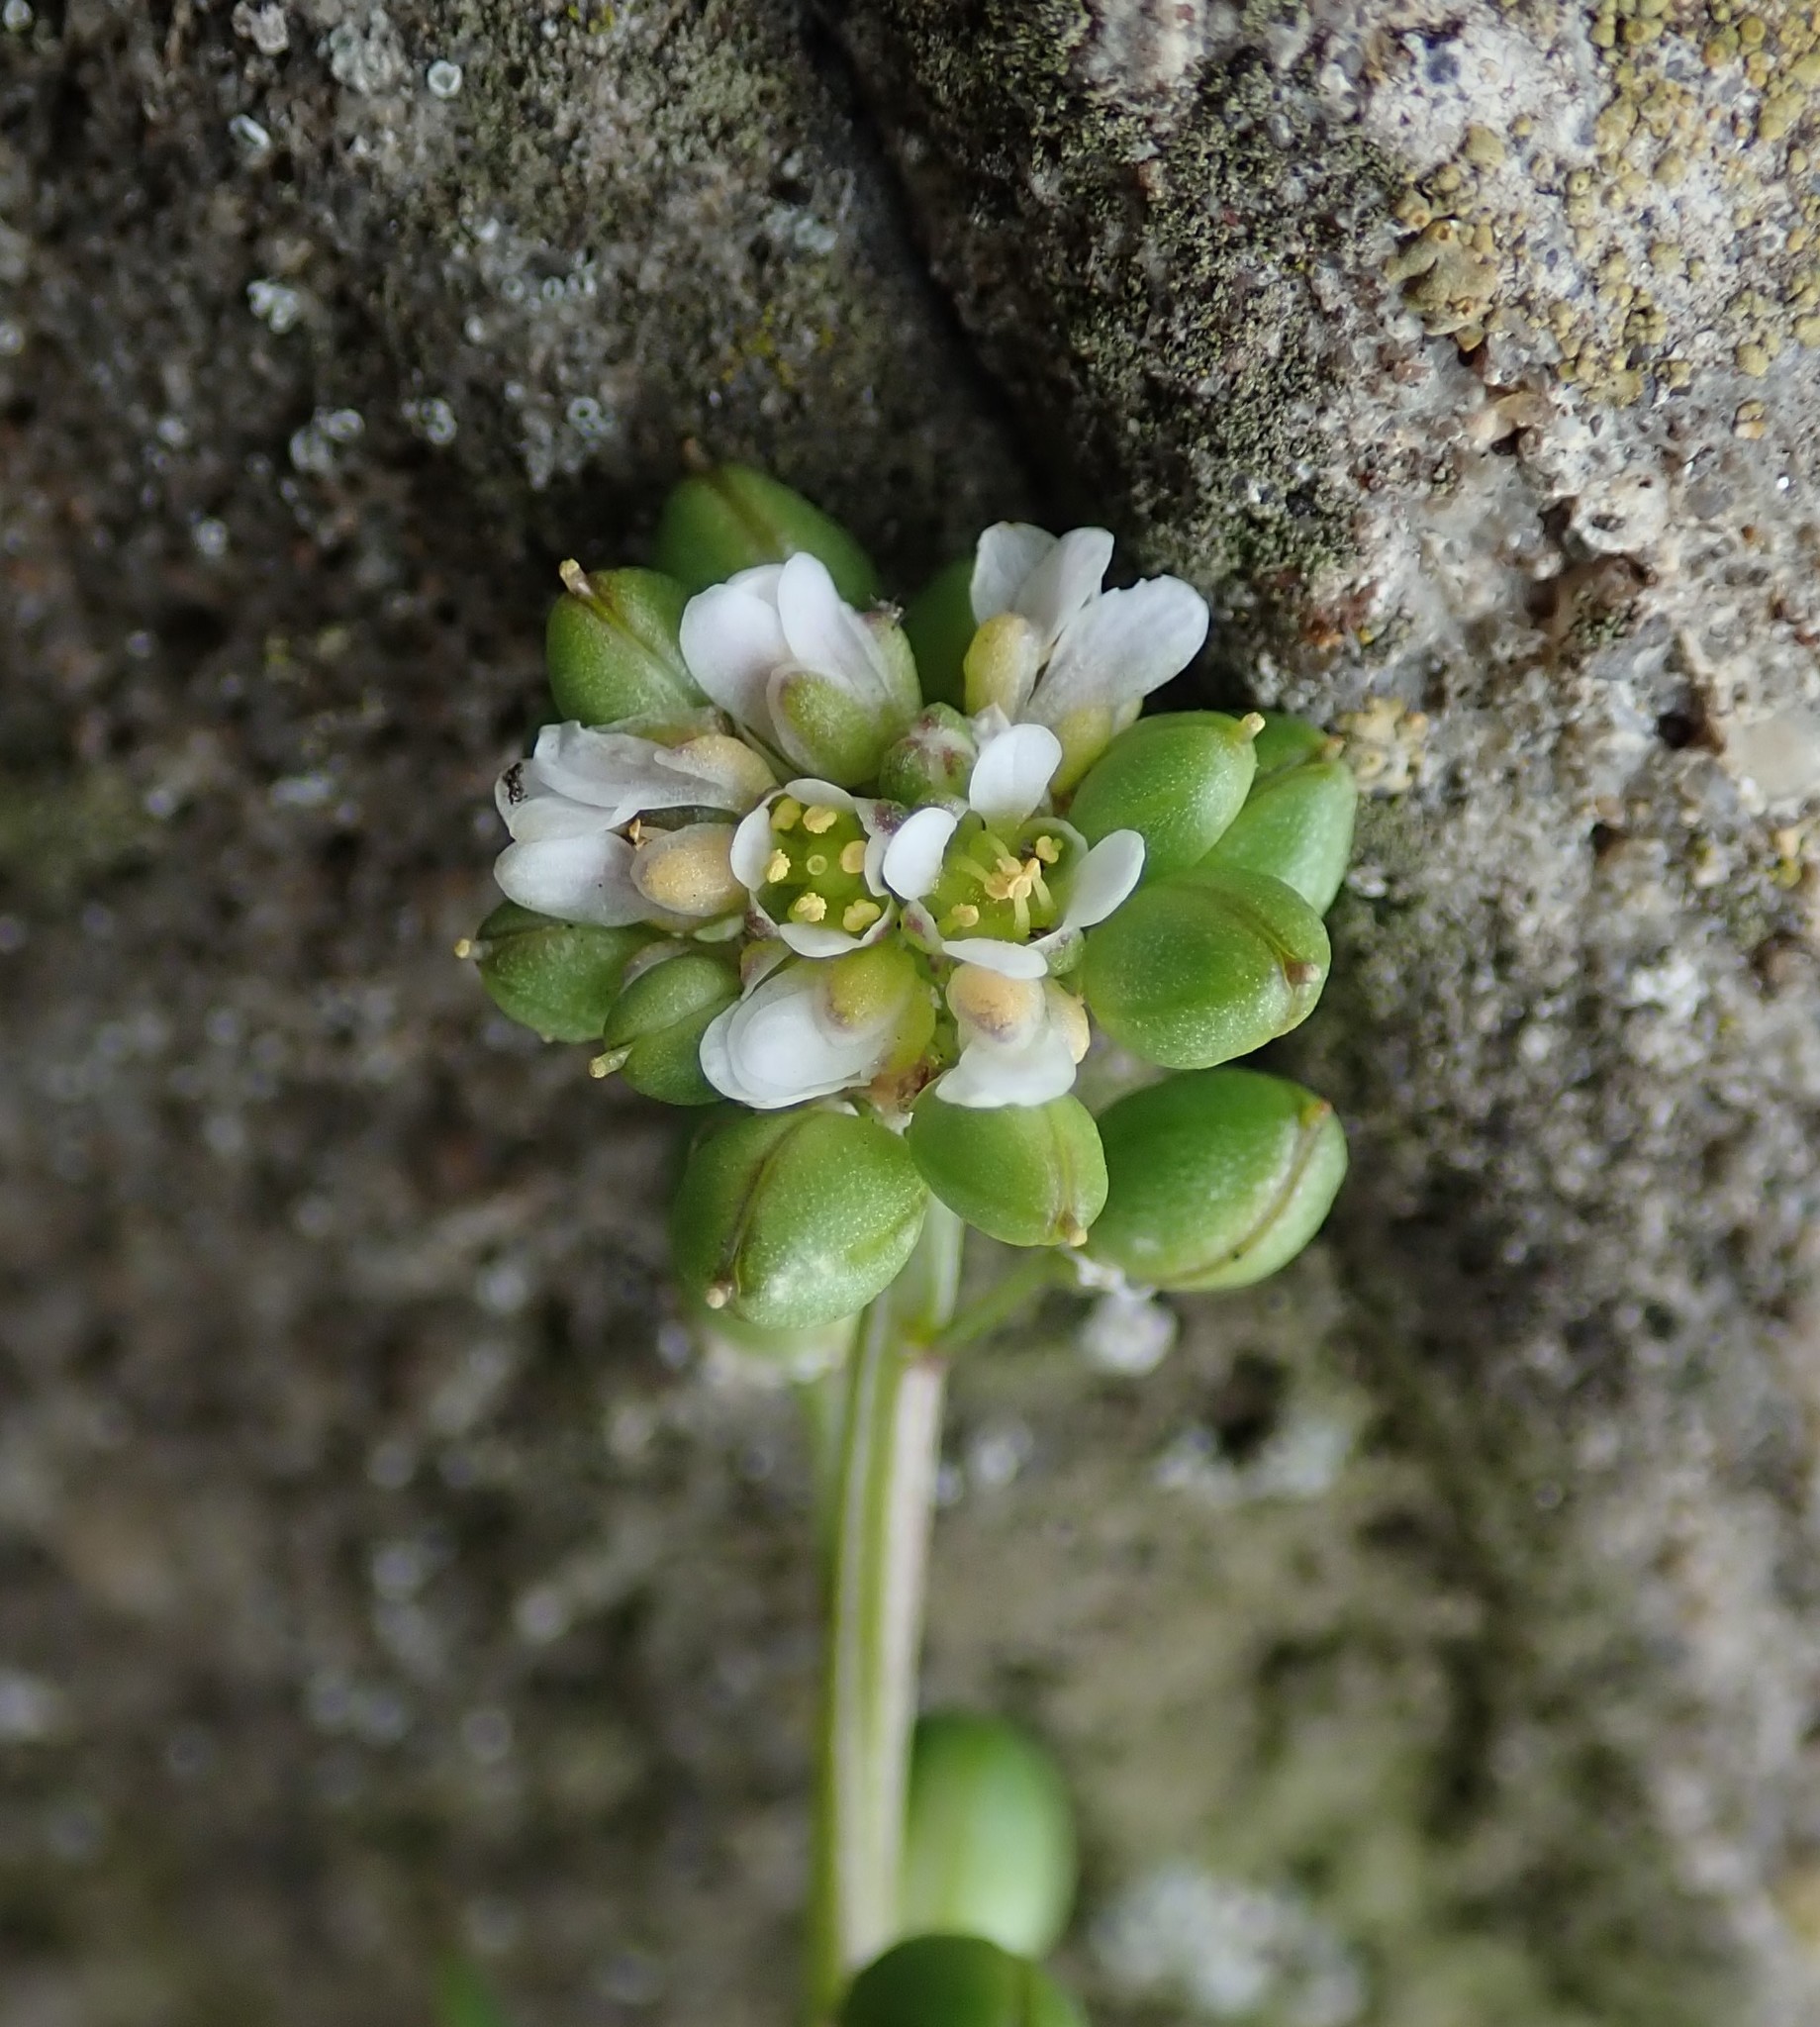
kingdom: Plantae
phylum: Tracheophyta
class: Magnoliopsida
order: Brassicales
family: Brassicaceae
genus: Cochlearia
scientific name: Cochlearia danica
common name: Early scurvygrass
